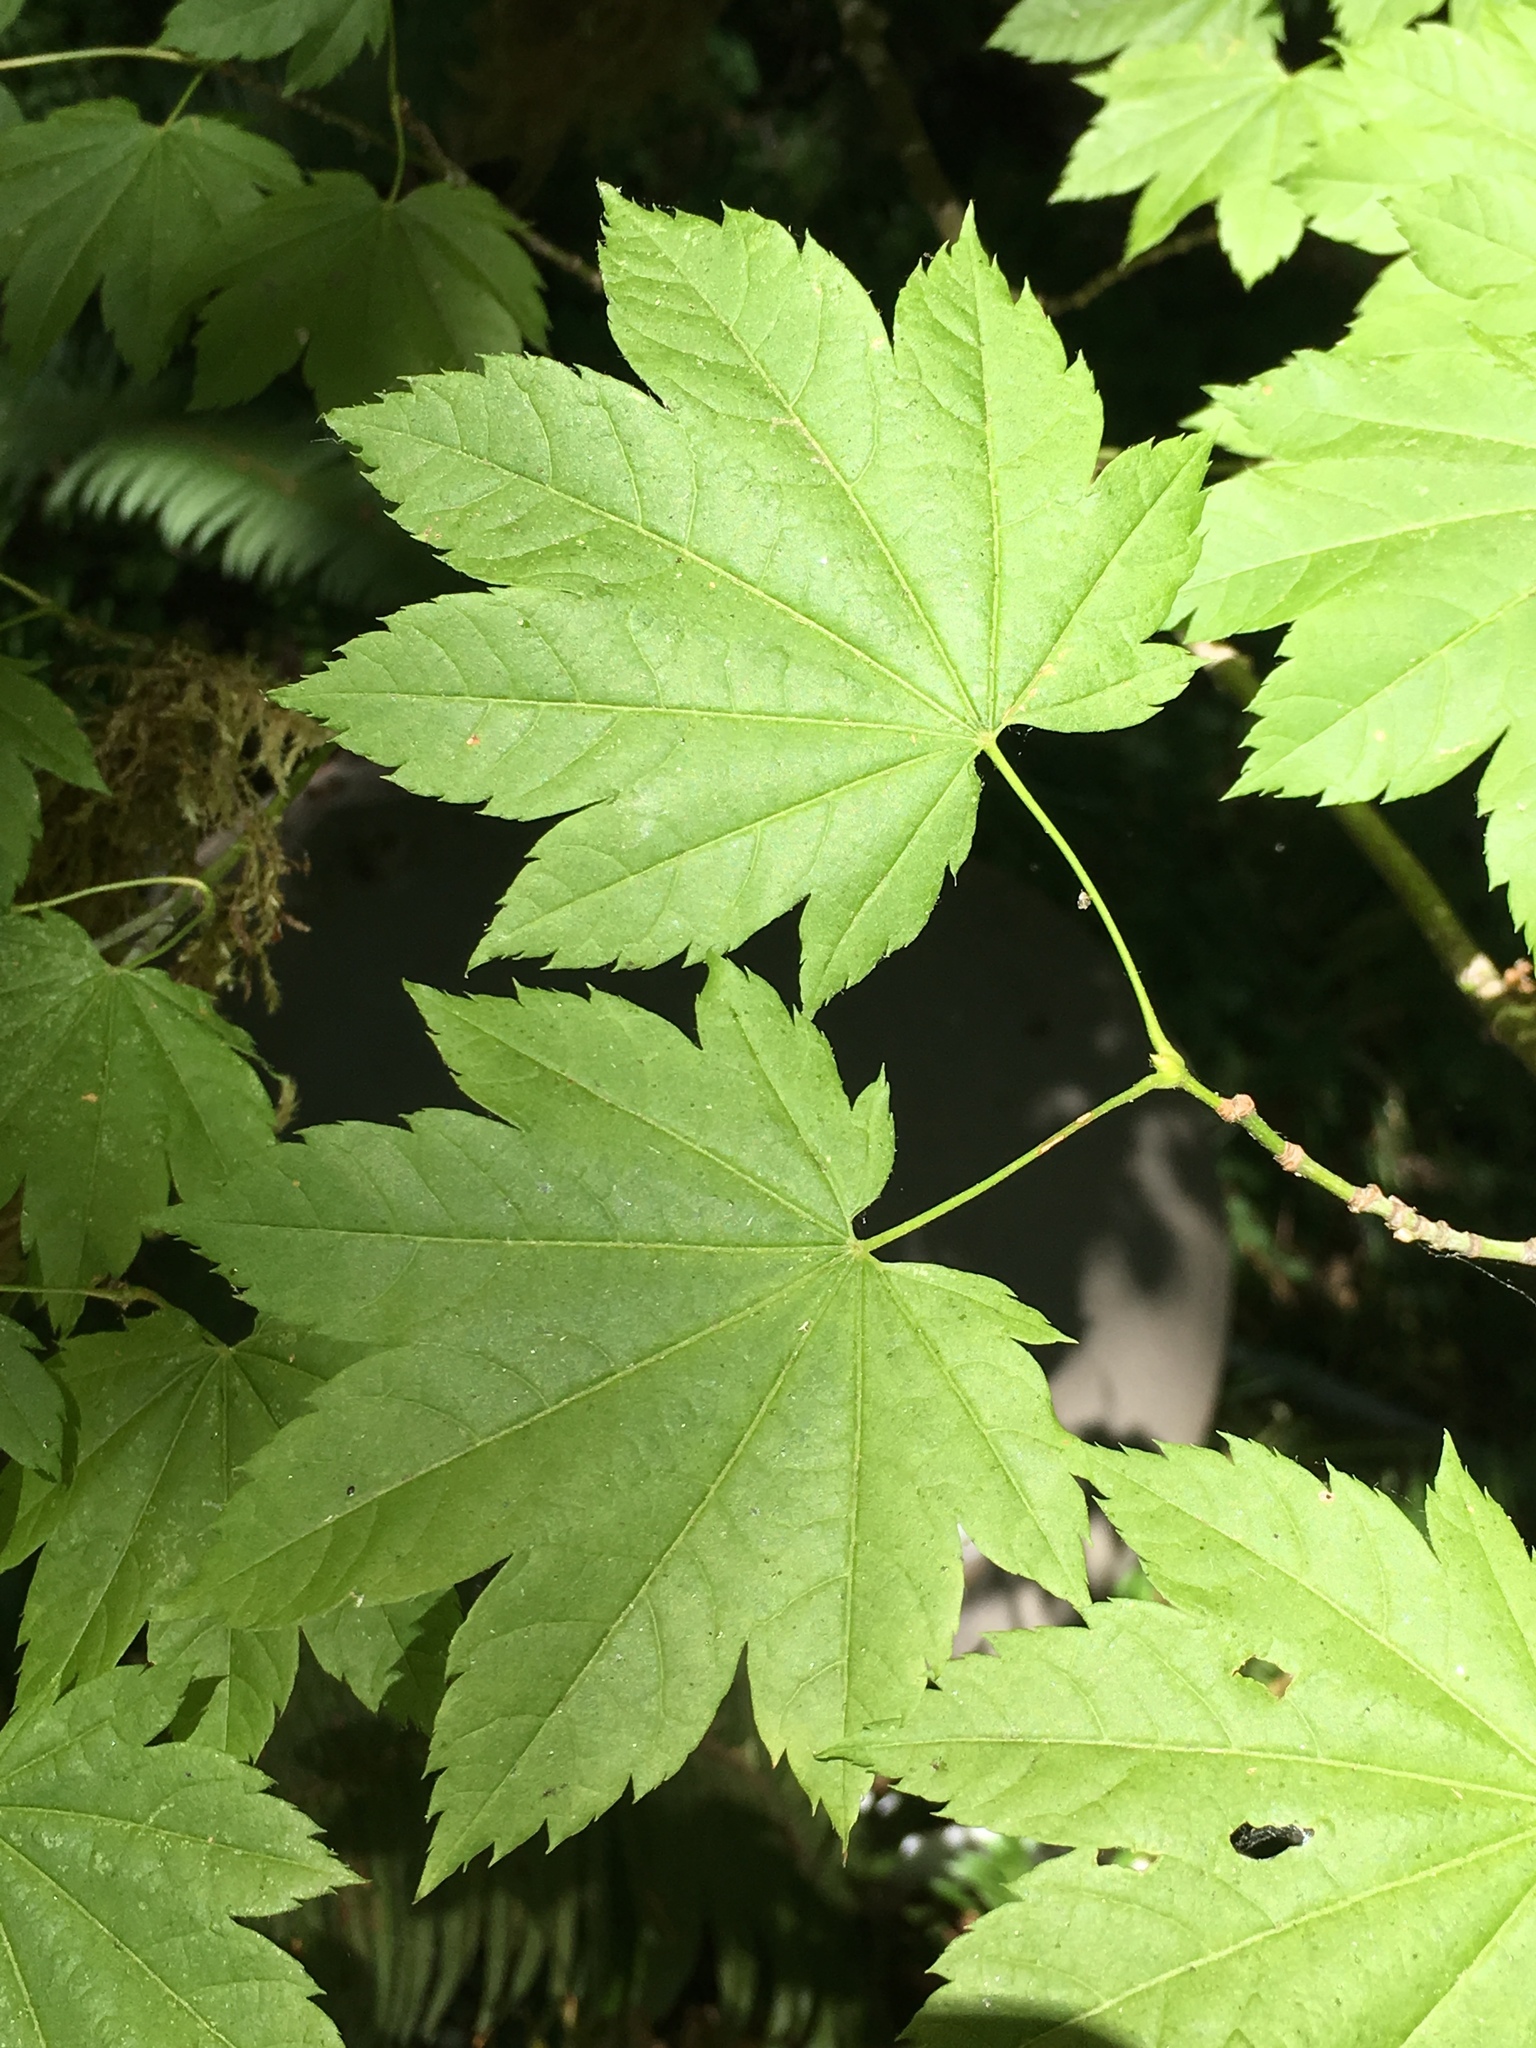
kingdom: Plantae
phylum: Tracheophyta
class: Magnoliopsida
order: Sapindales
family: Sapindaceae
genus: Acer
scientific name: Acer circinatum
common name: Vine maple
